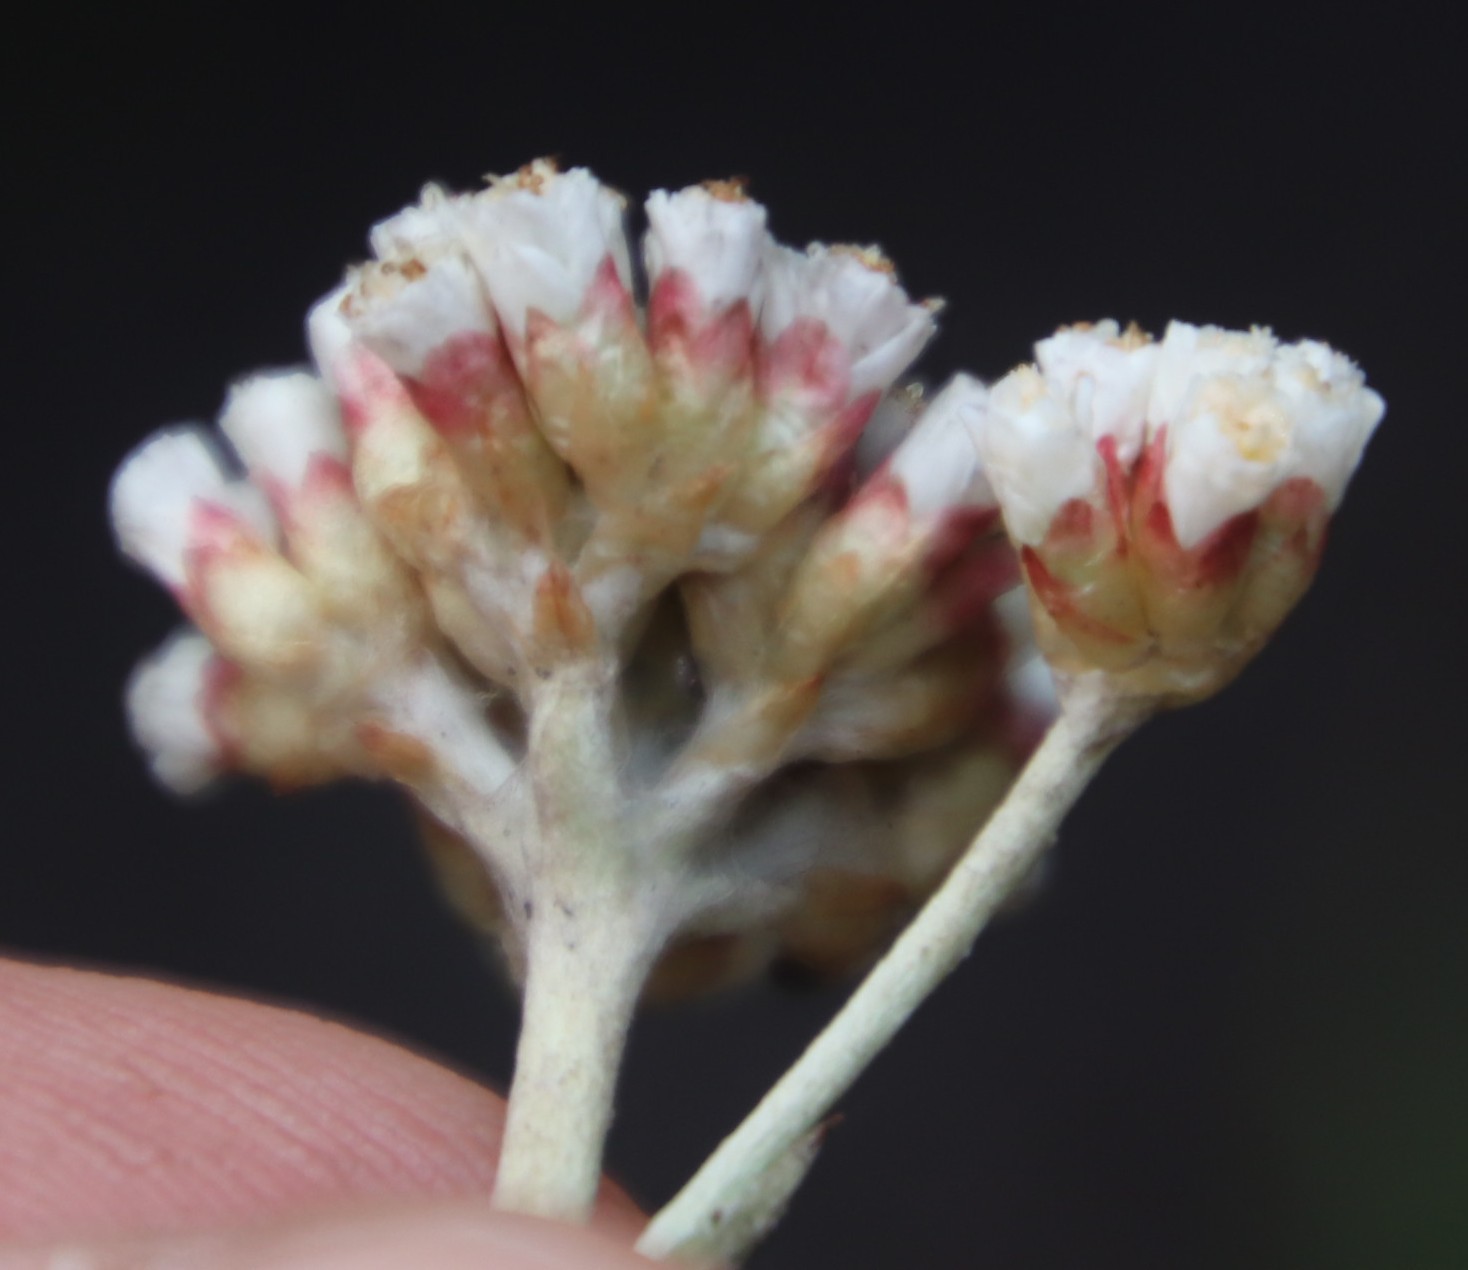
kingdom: Plantae
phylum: Tracheophyta
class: Magnoliopsida
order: Asterales
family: Asteraceae
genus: Anaxeton
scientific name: Anaxeton arborescens
